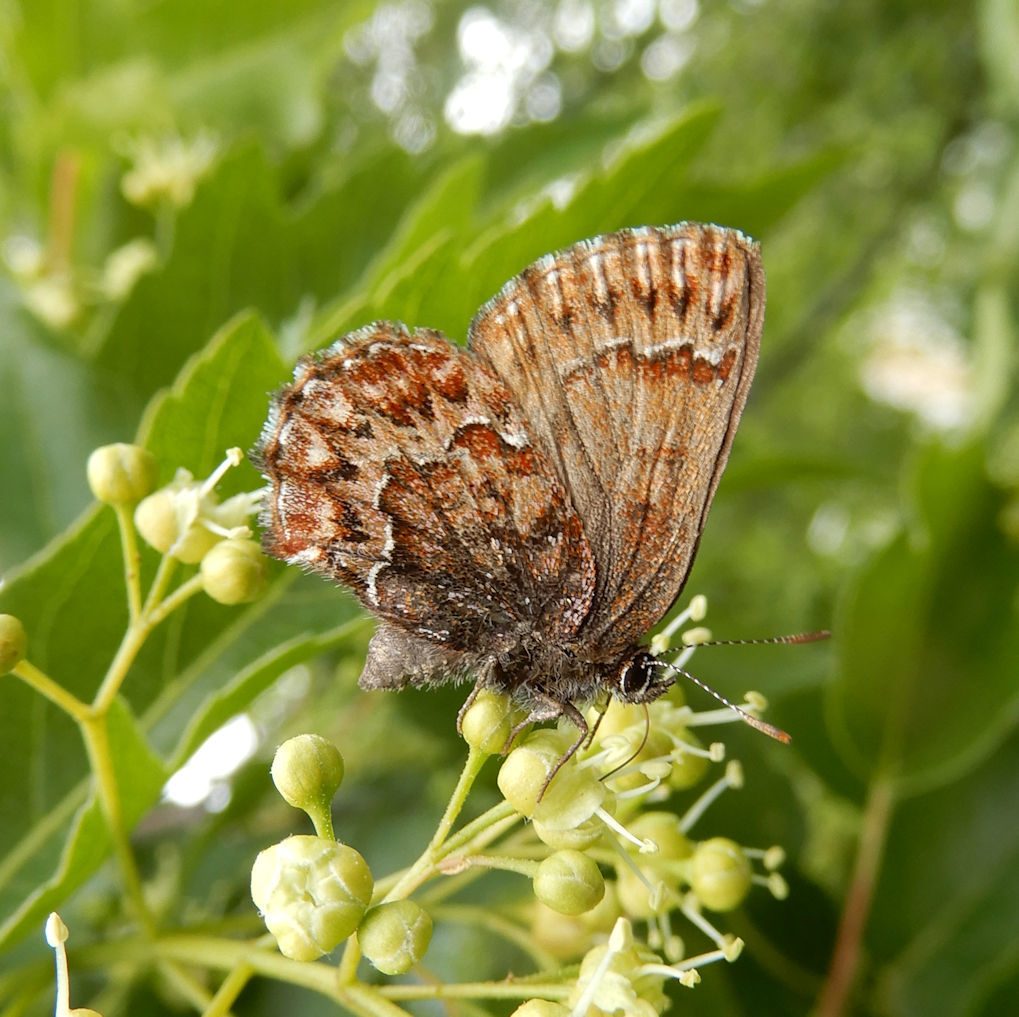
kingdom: Animalia
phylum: Arthropoda
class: Insecta
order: Lepidoptera
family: Lycaenidae
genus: Incisalia
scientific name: Incisalia eryphon
